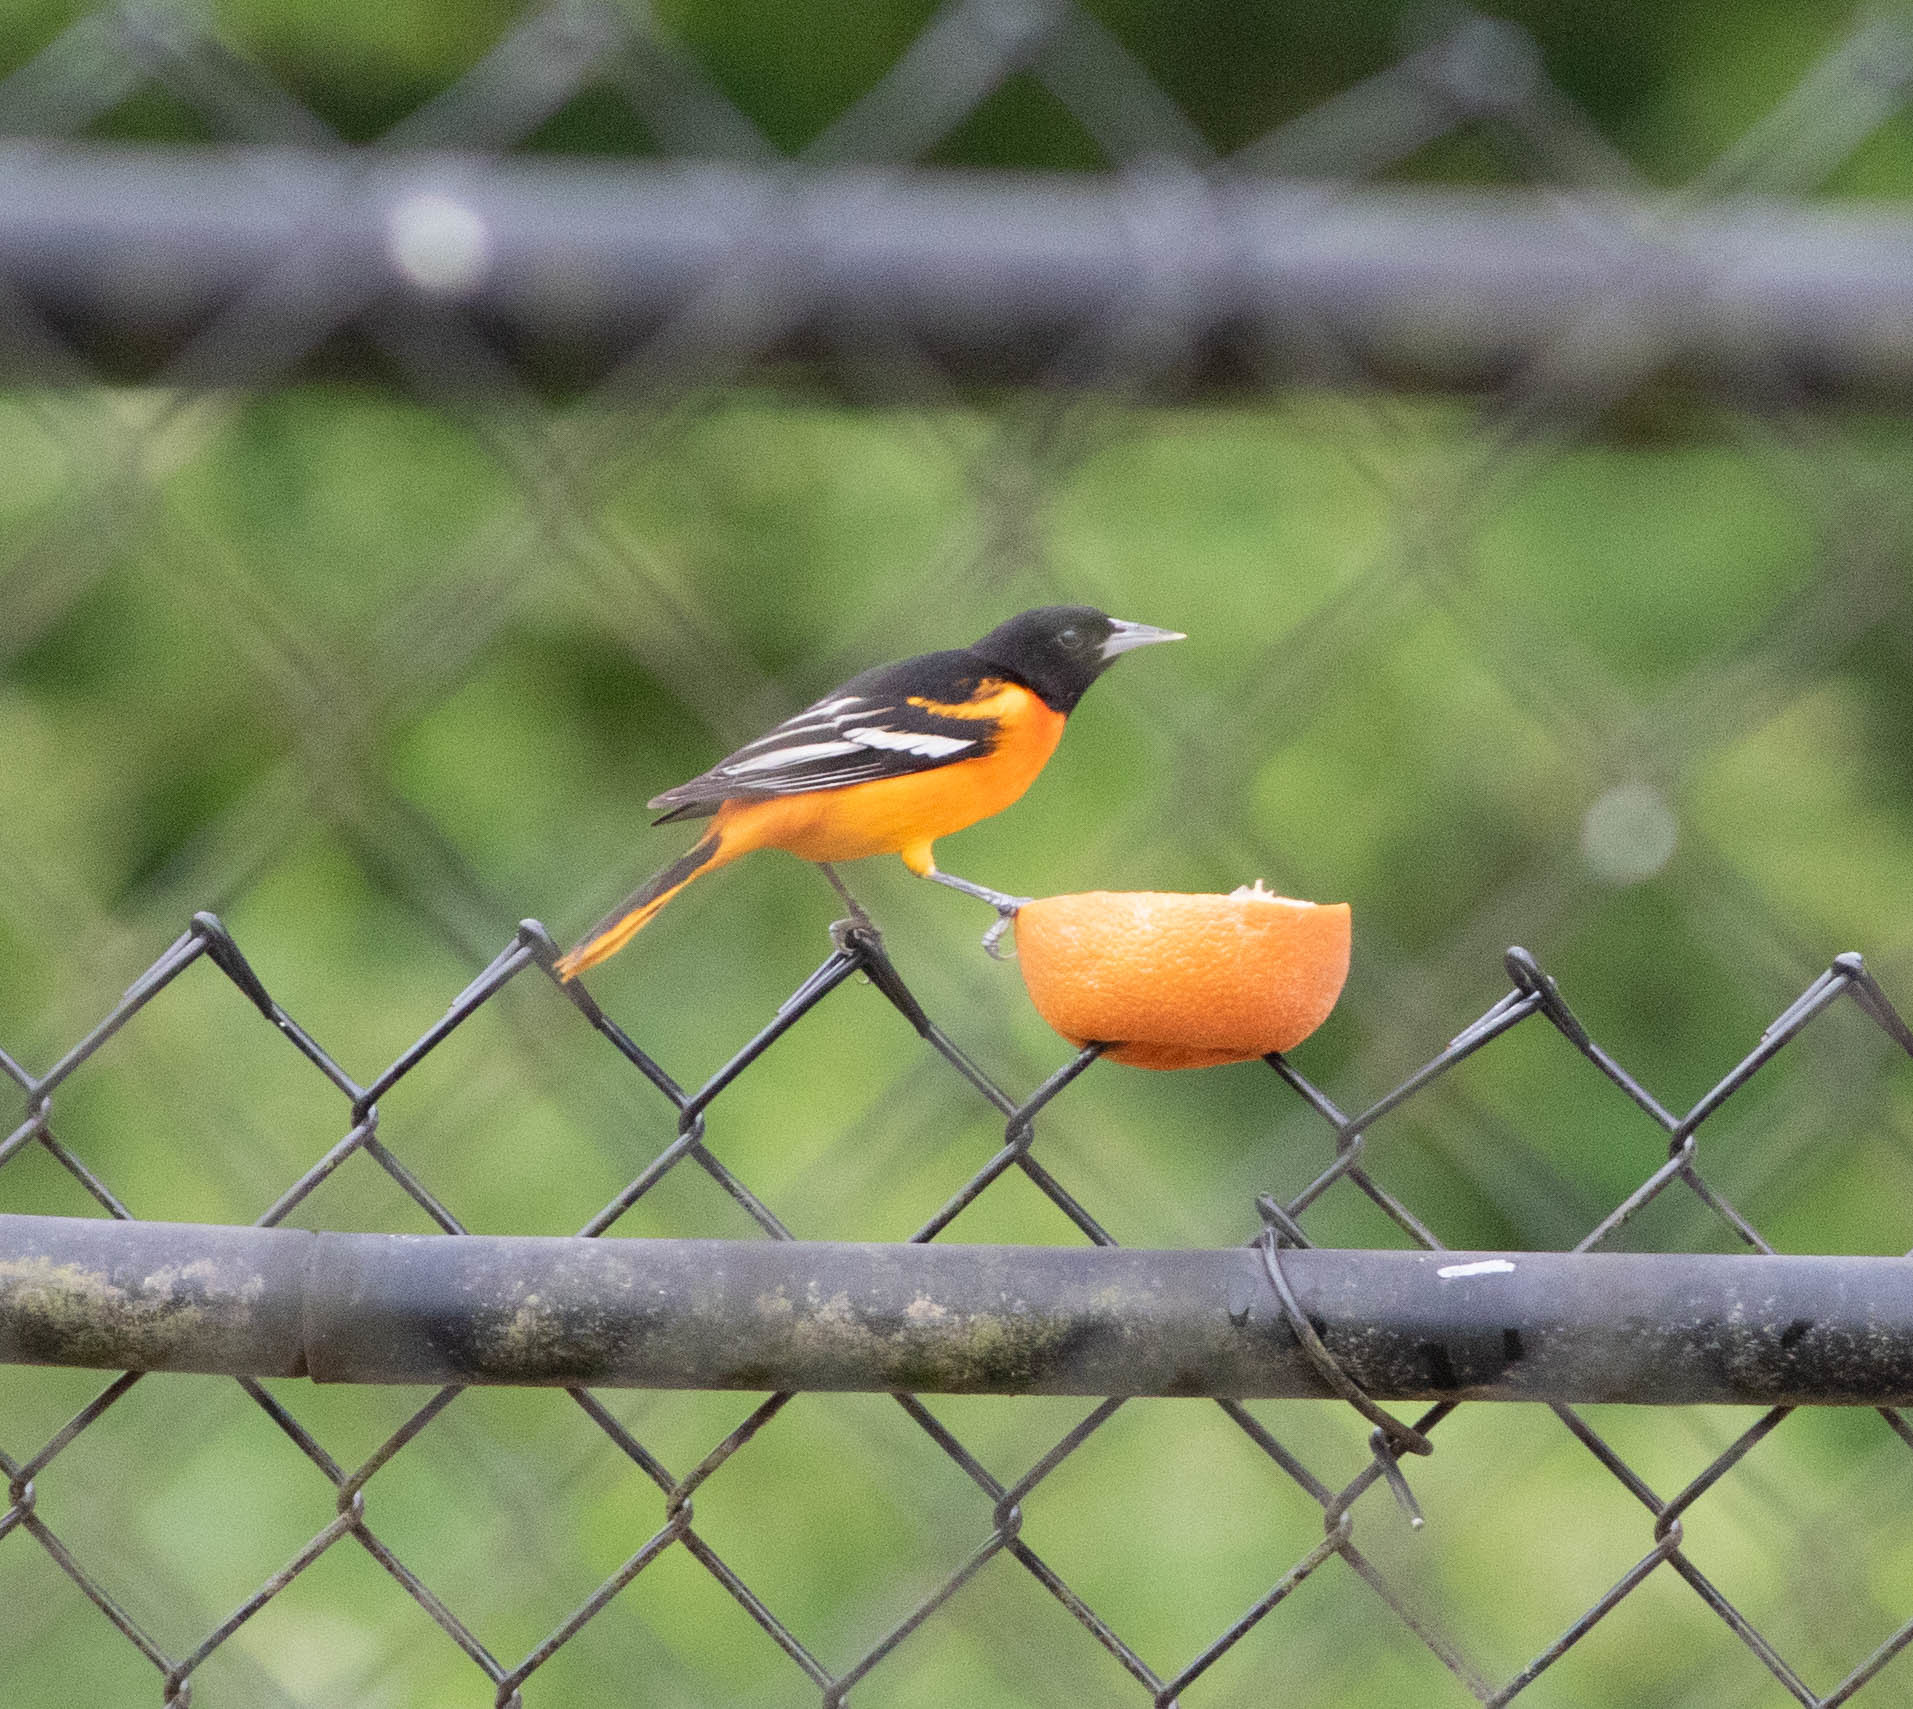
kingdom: Animalia
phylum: Chordata
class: Aves
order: Passeriformes
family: Icteridae
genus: Icterus
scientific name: Icterus galbula
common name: Baltimore oriole
